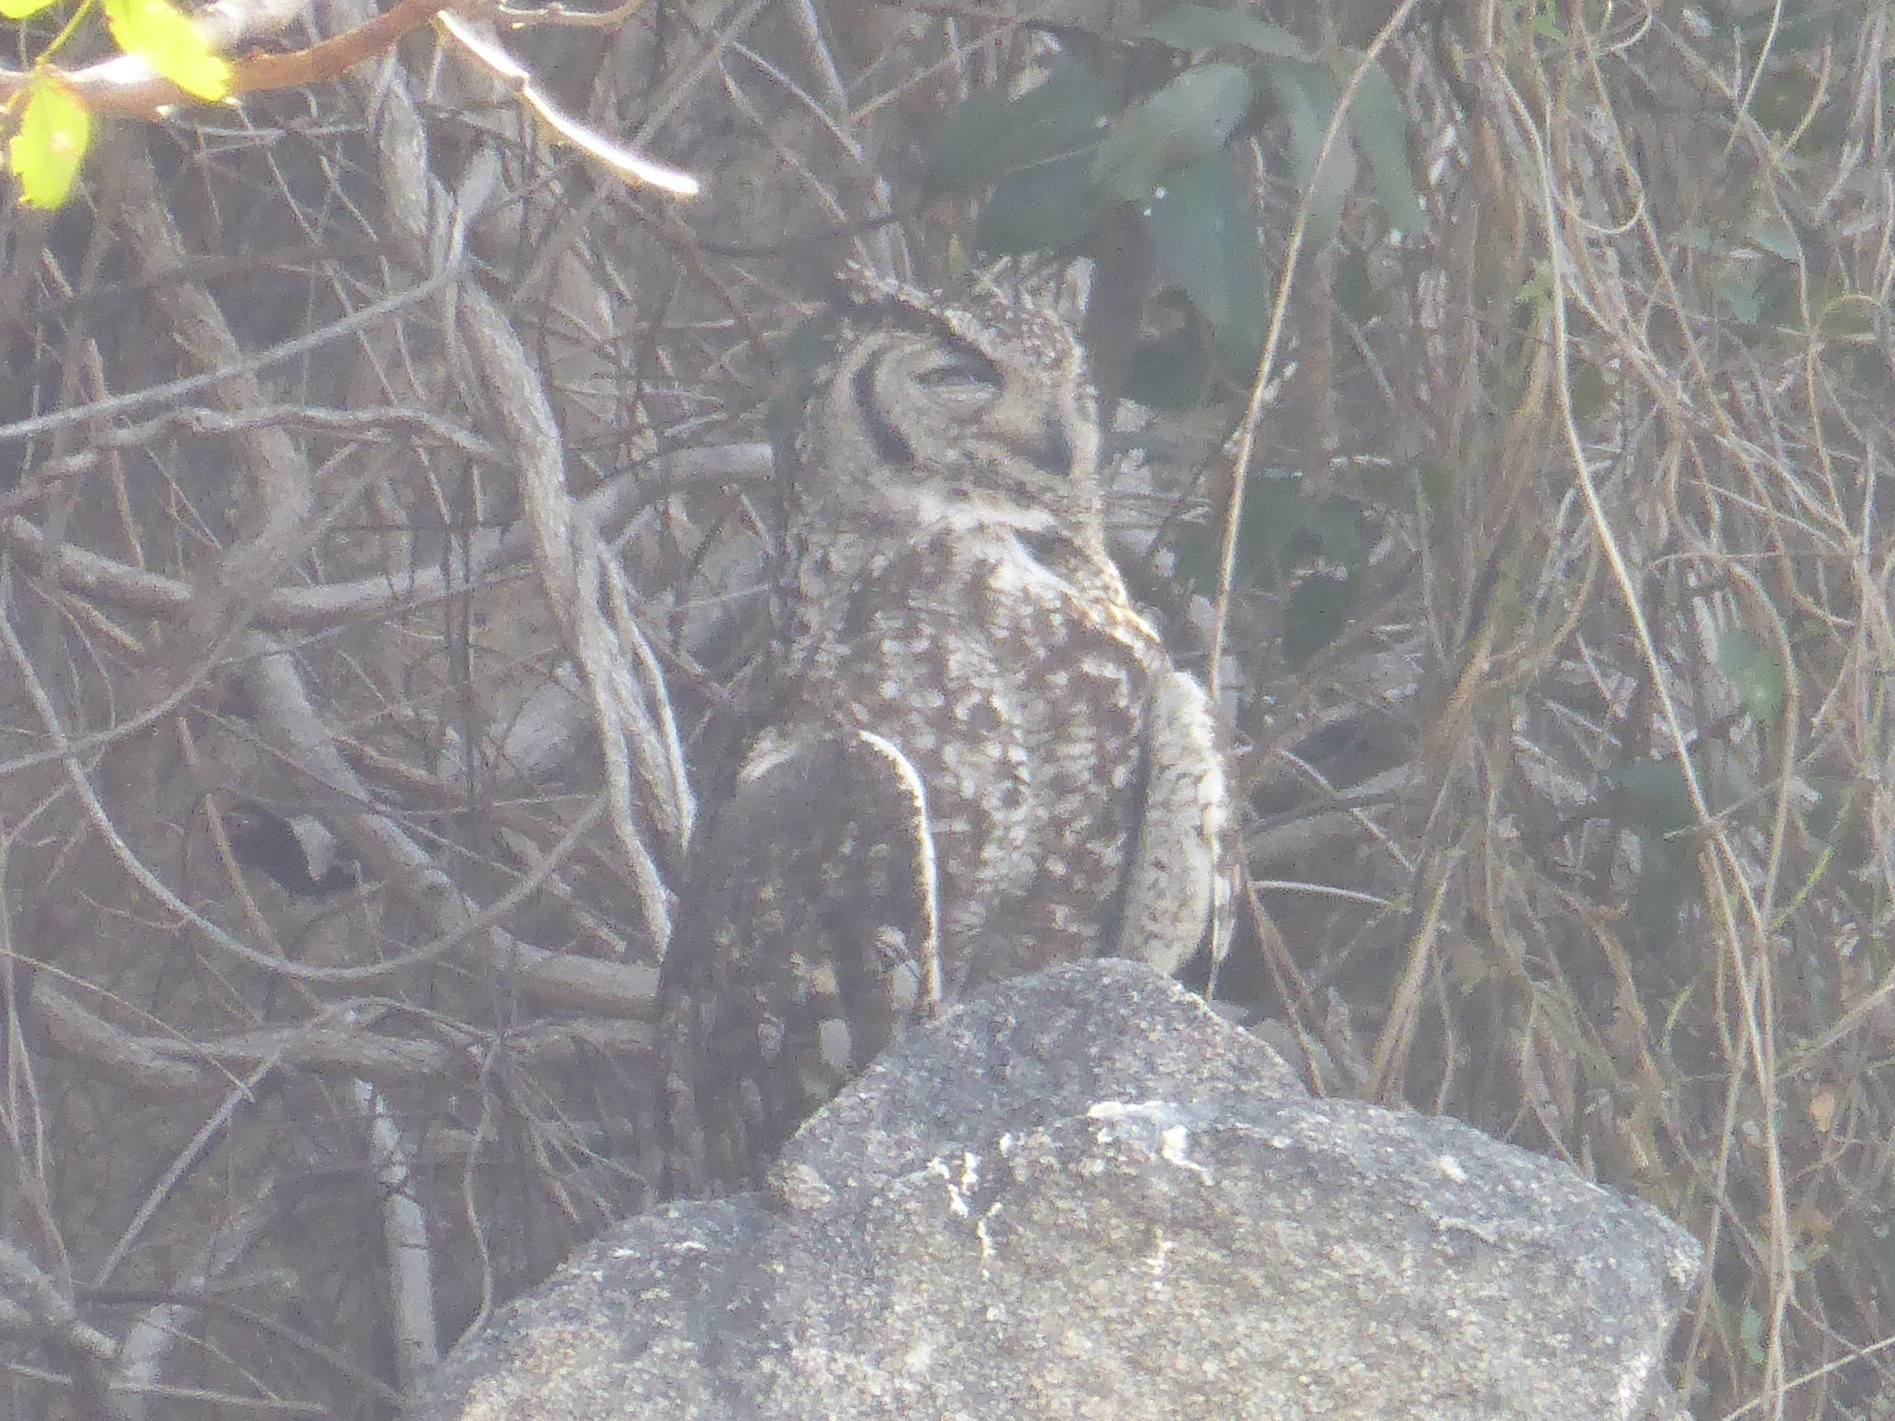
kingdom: Animalia
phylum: Chordata
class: Aves
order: Strigiformes
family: Strigidae
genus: Bubo
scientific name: Bubo africanus
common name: Spotted eagle-owl
